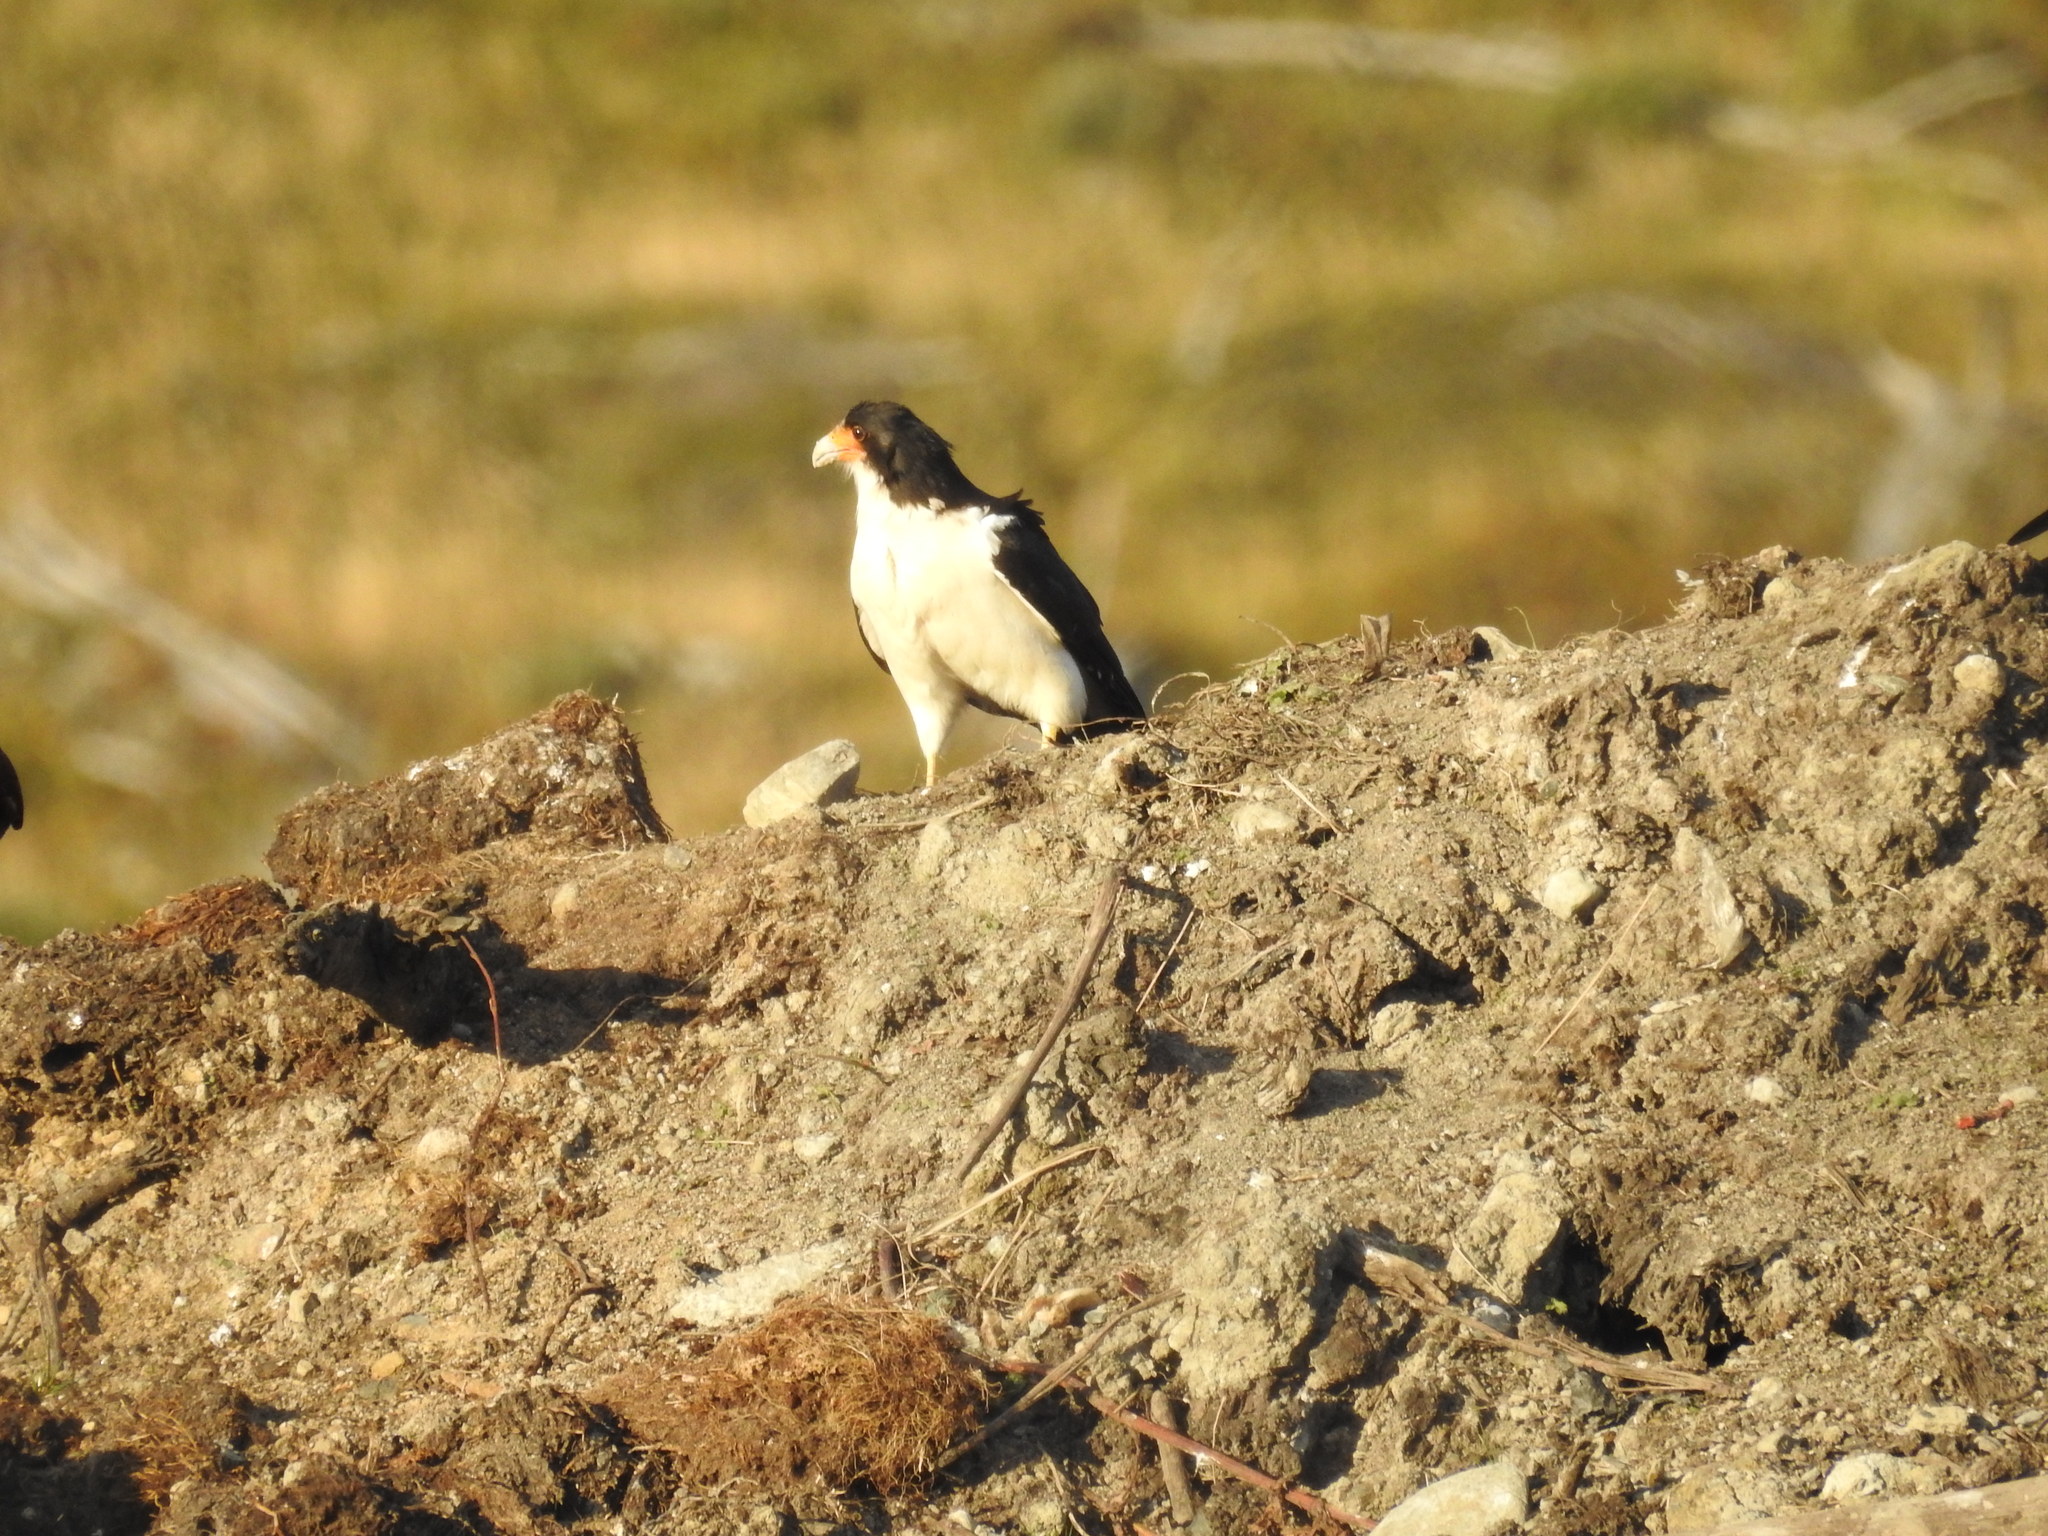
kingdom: Animalia
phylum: Chordata
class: Aves
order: Falconiformes
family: Falconidae
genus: Daptrius
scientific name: Daptrius
